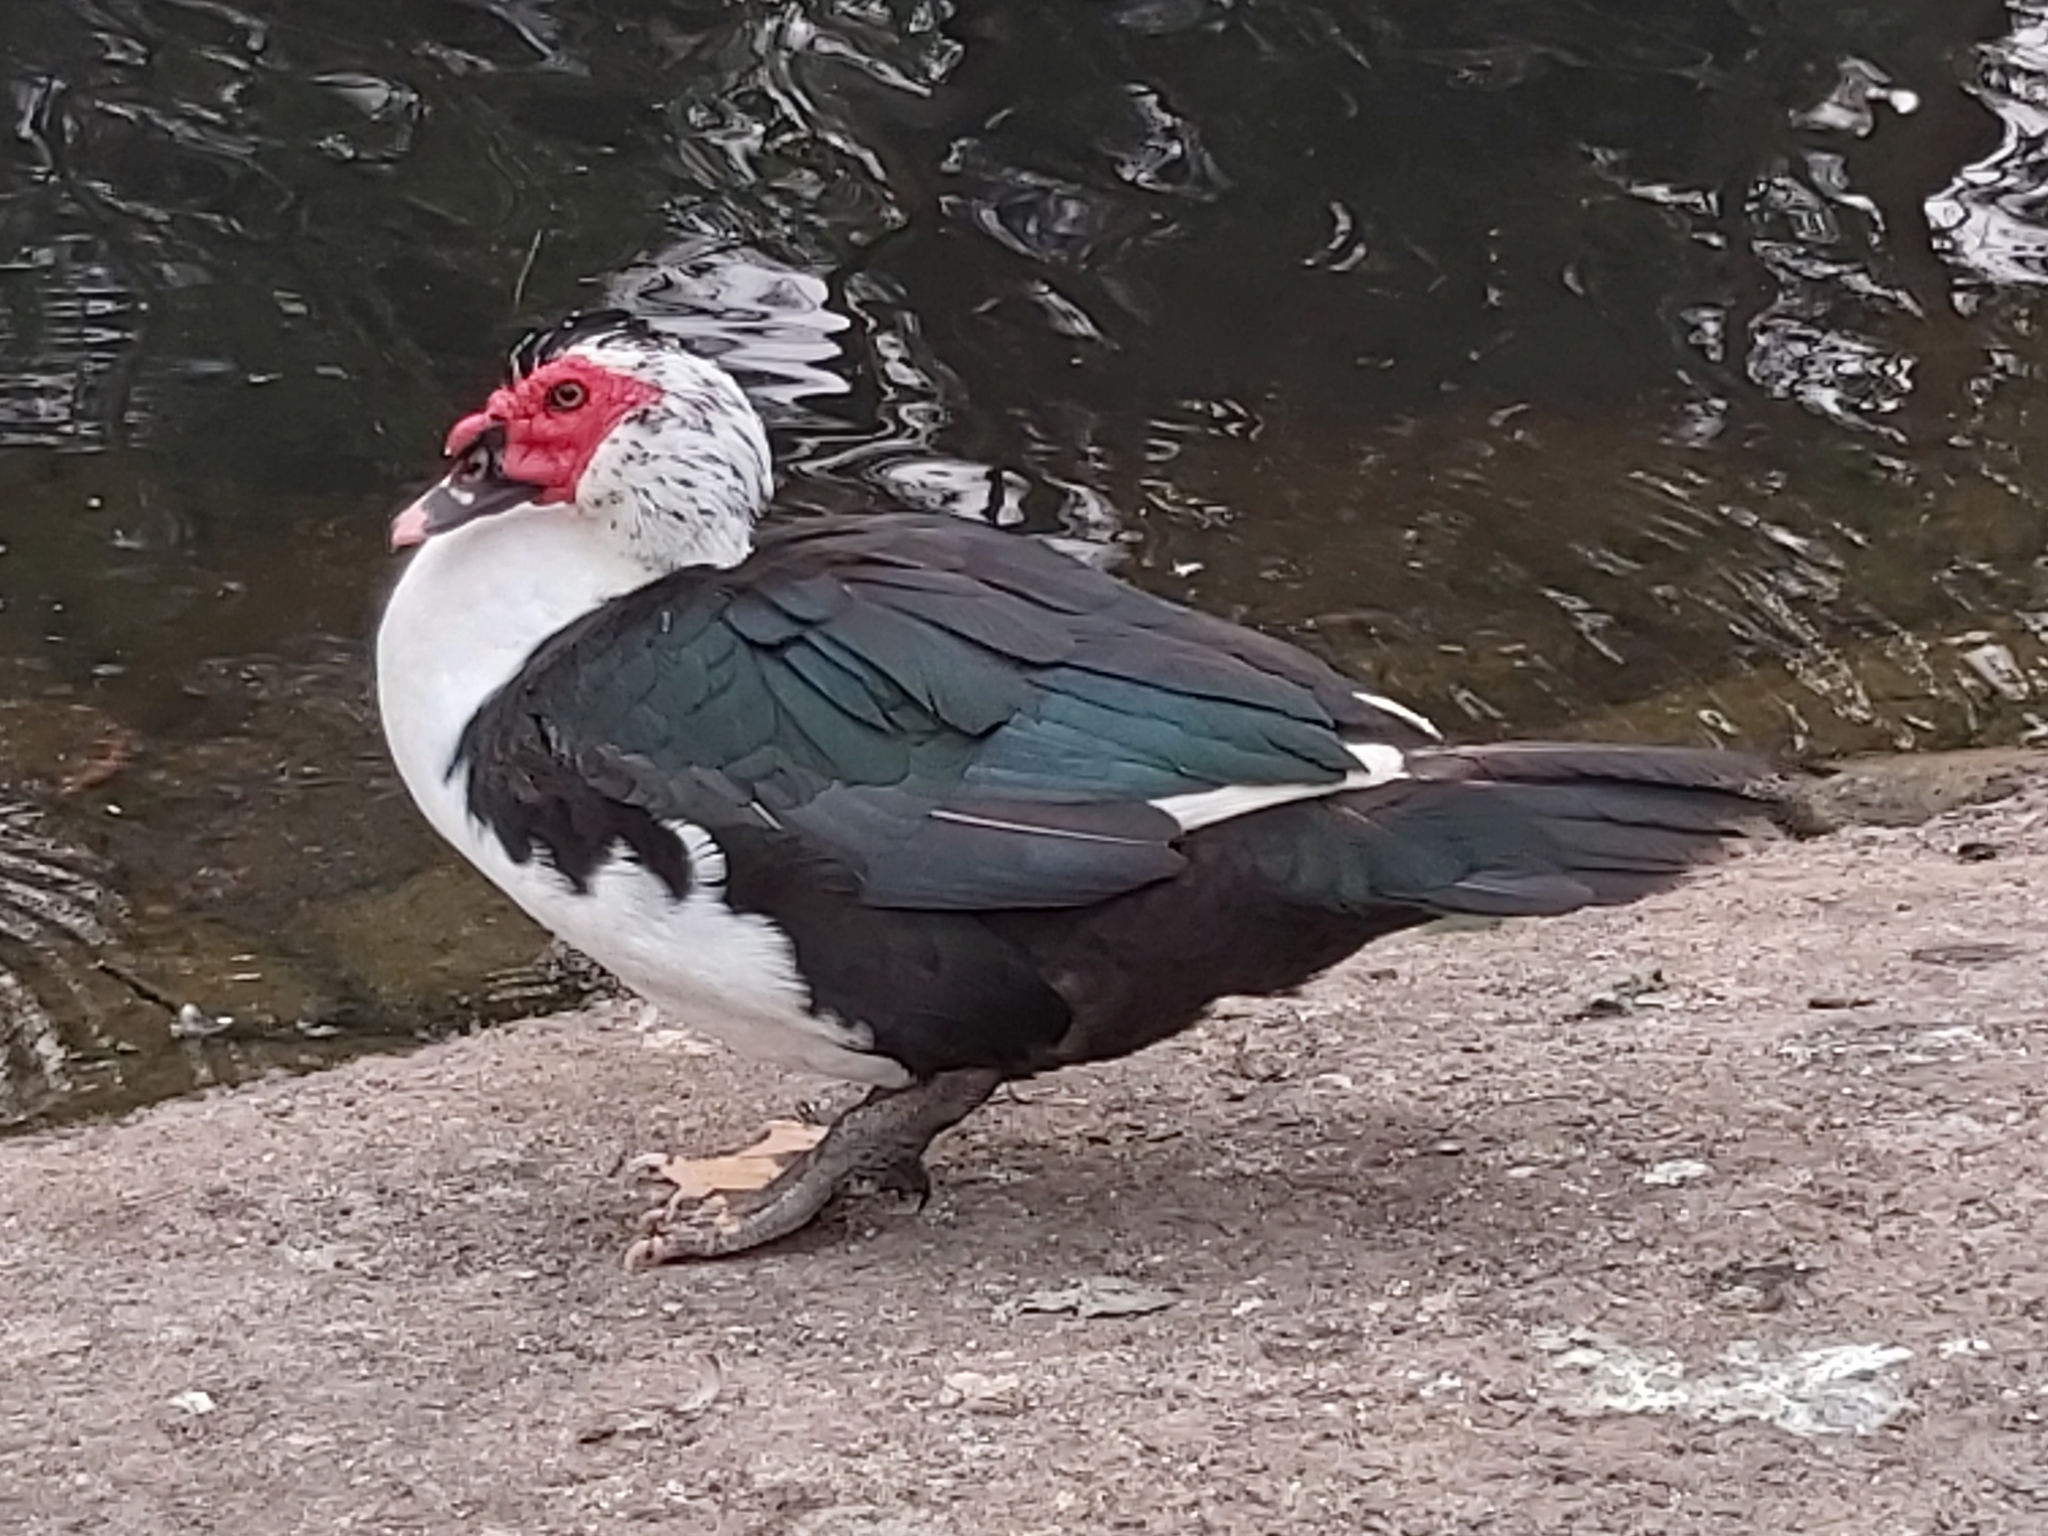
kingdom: Animalia
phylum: Chordata
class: Aves
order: Anseriformes
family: Anatidae
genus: Cairina
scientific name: Cairina moschata
